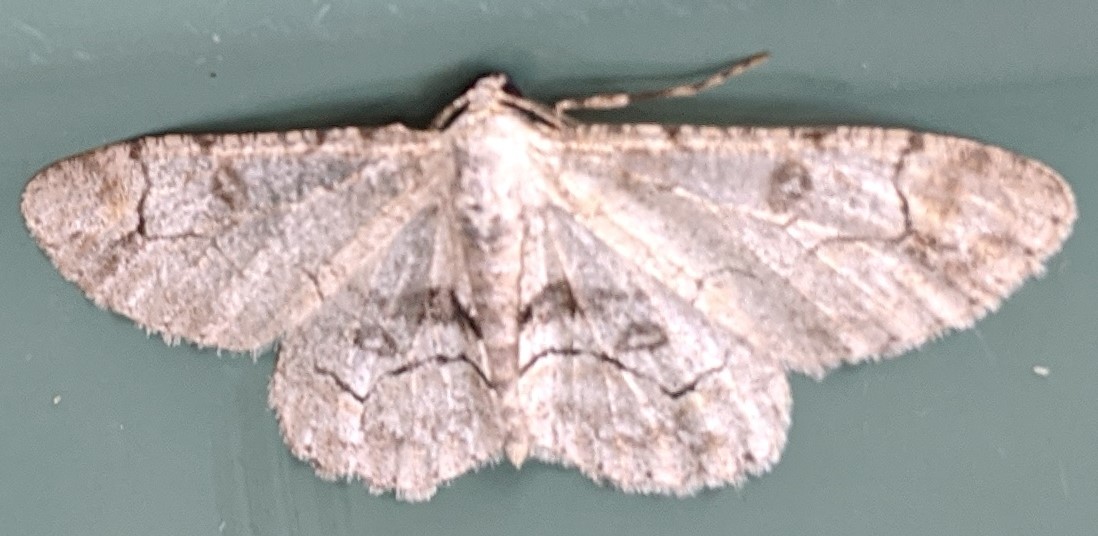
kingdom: Animalia
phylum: Arthropoda
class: Insecta
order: Lepidoptera
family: Geometridae
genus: Iridopsis
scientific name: Iridopsis larvaria
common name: Bent-line gray
